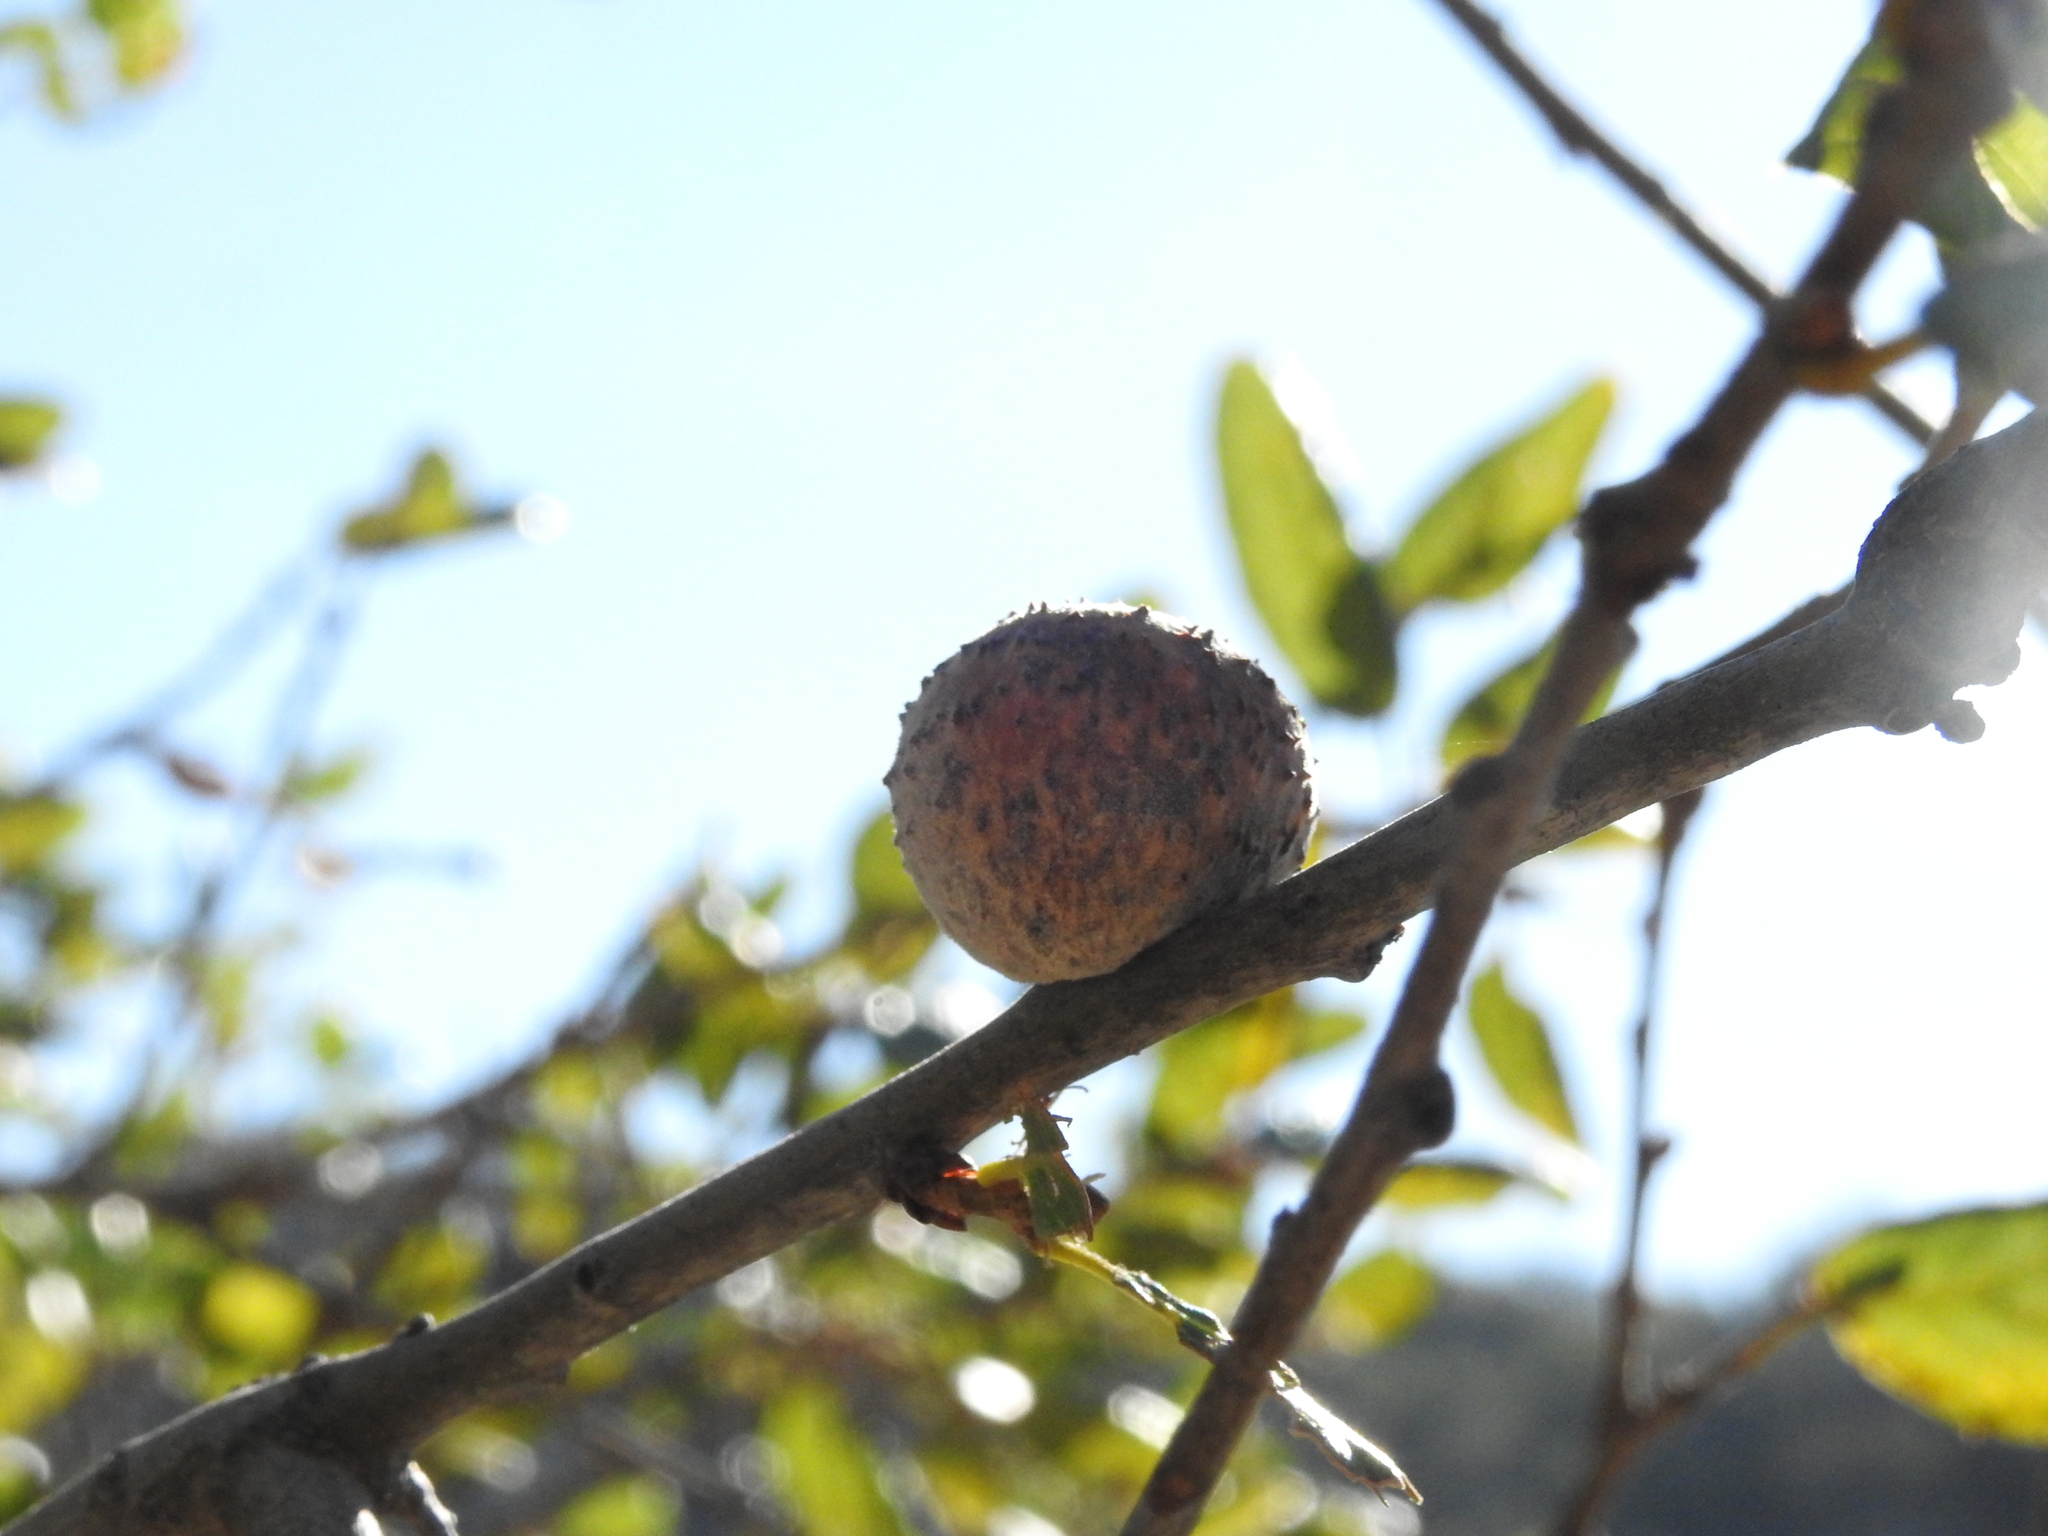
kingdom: Animalia
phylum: Arthropoda
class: Insecta
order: Hymenoptera
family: Cynipidae
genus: Amphibolips
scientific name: Amphibolips quercuspomiformis
